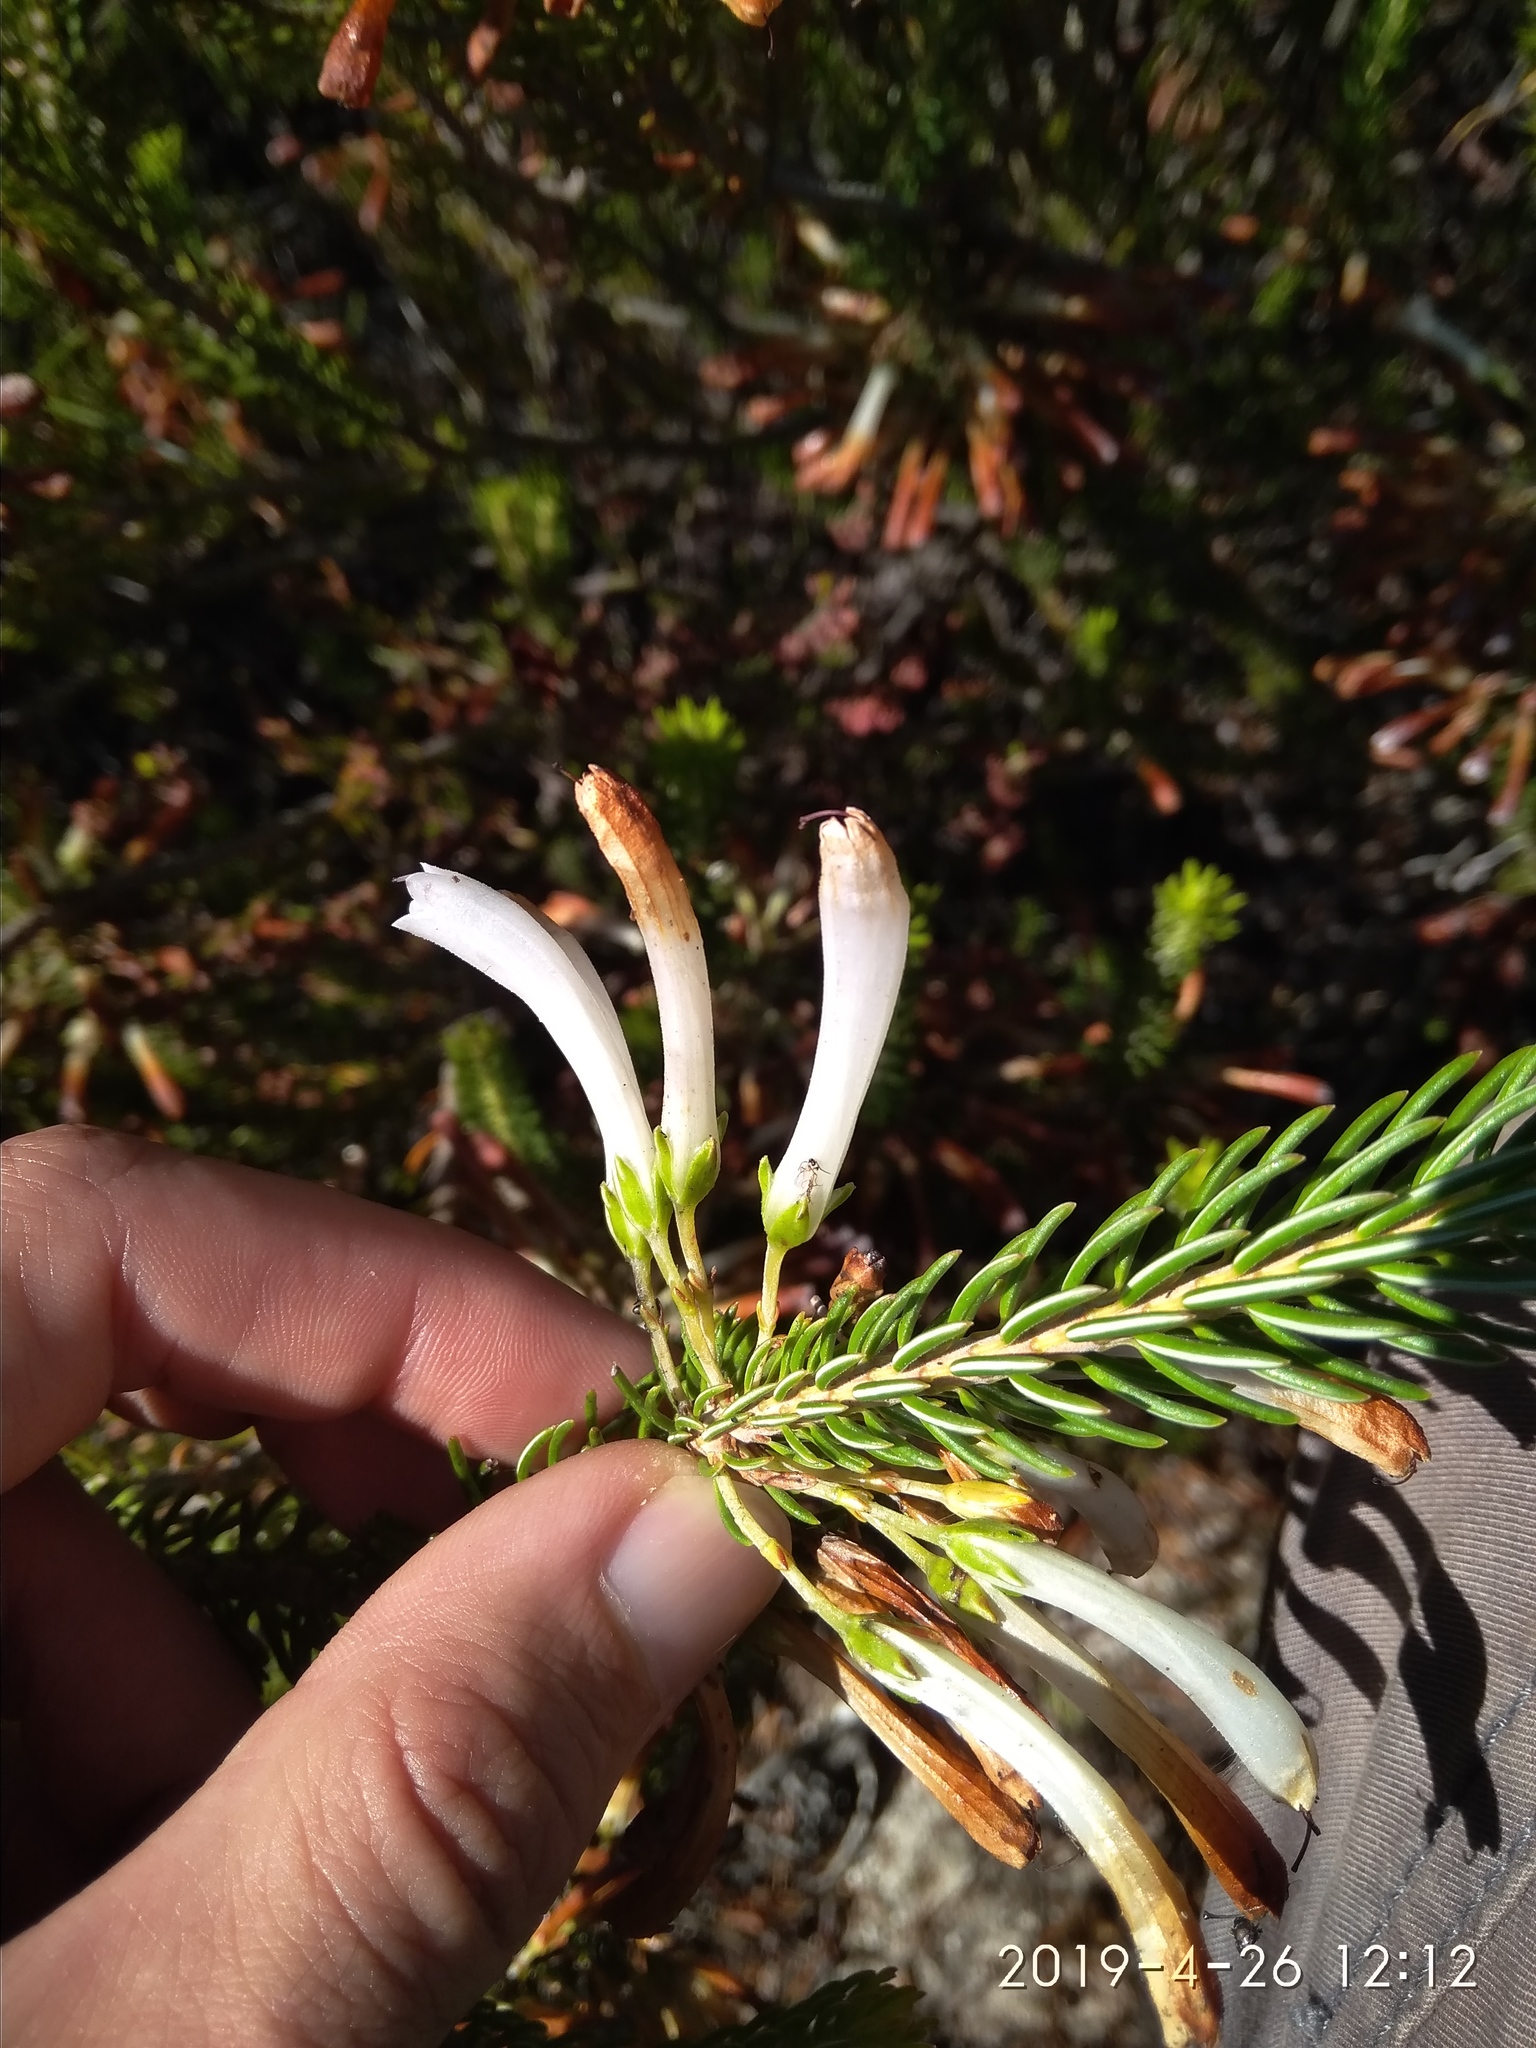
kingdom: Plantae
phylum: Tracheophyta
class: Magnoliopsida
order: Ericales
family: Ericaceae
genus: Erica
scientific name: Erica thomae
